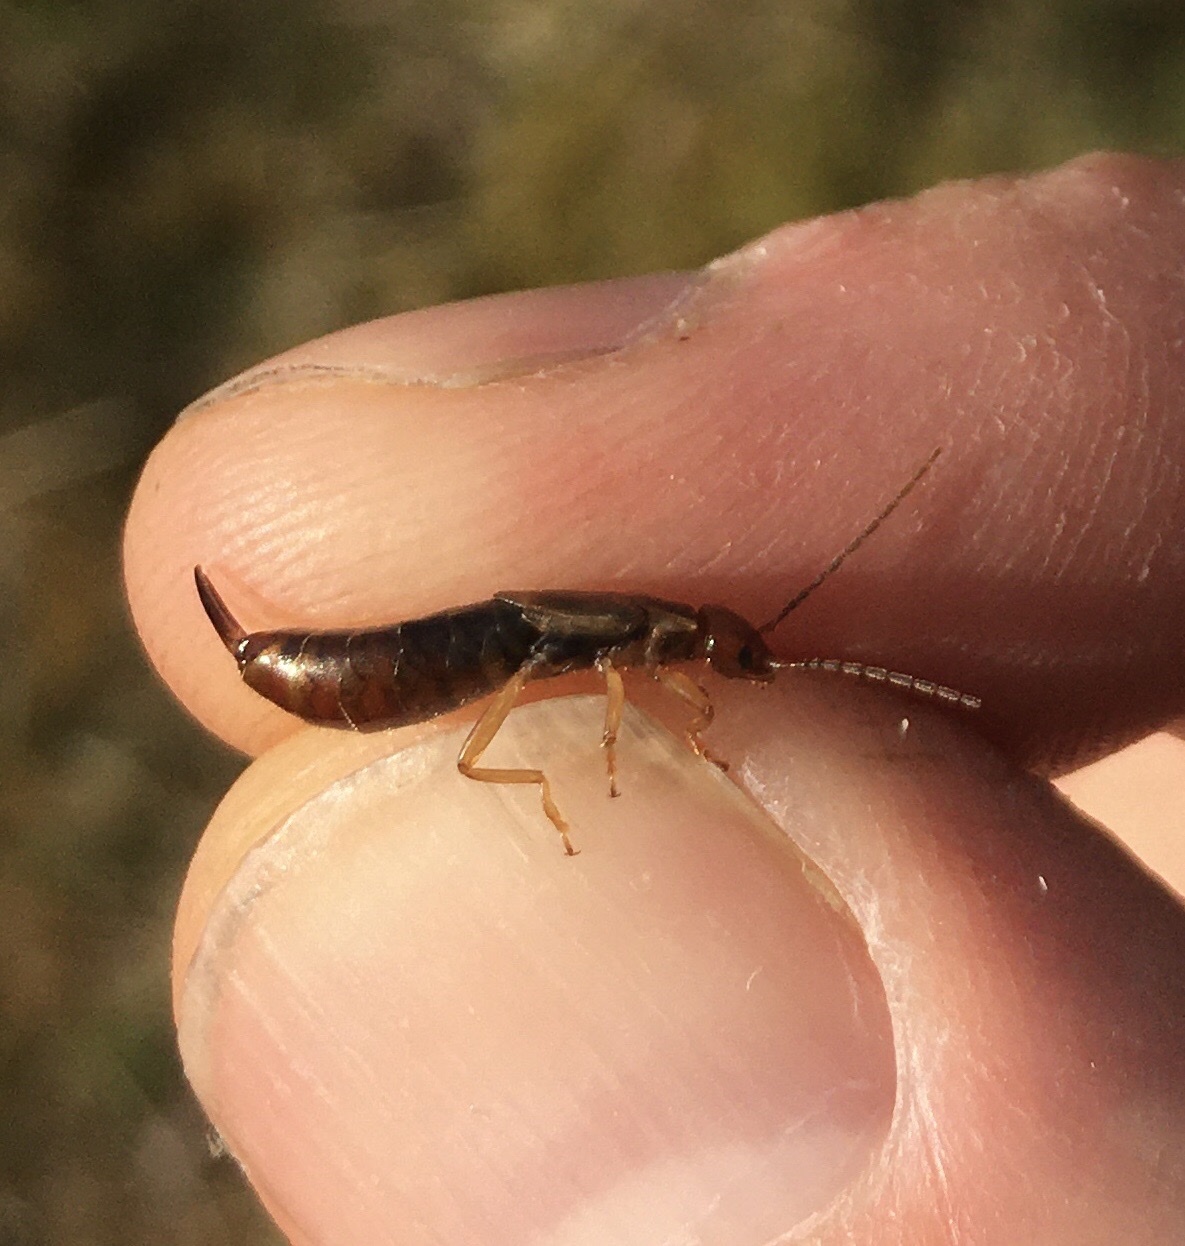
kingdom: Animalia
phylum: Arthropoda
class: Insecta
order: Dermaptera
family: Forficulidae
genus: Forficula
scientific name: Forficula
